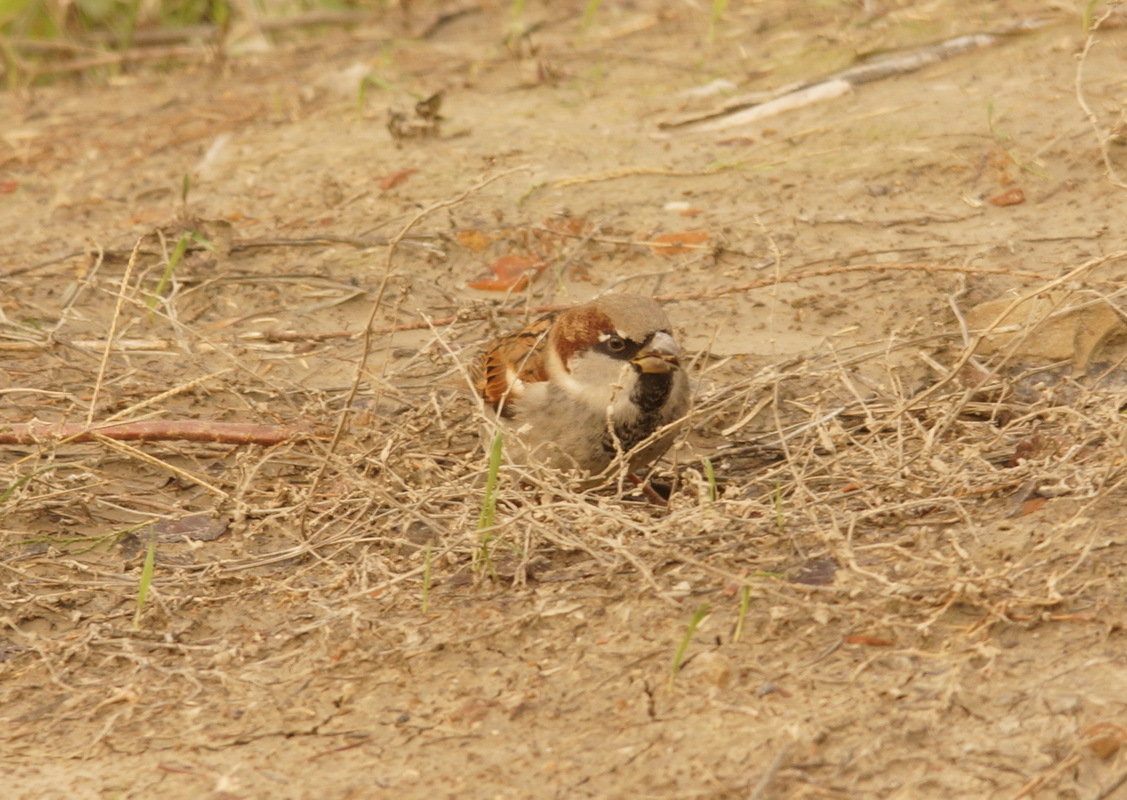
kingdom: Animalia
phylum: Chordata
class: Aves
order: Passeriformes
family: Passeridae
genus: Passer
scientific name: Passer domesticus
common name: House sparrow
